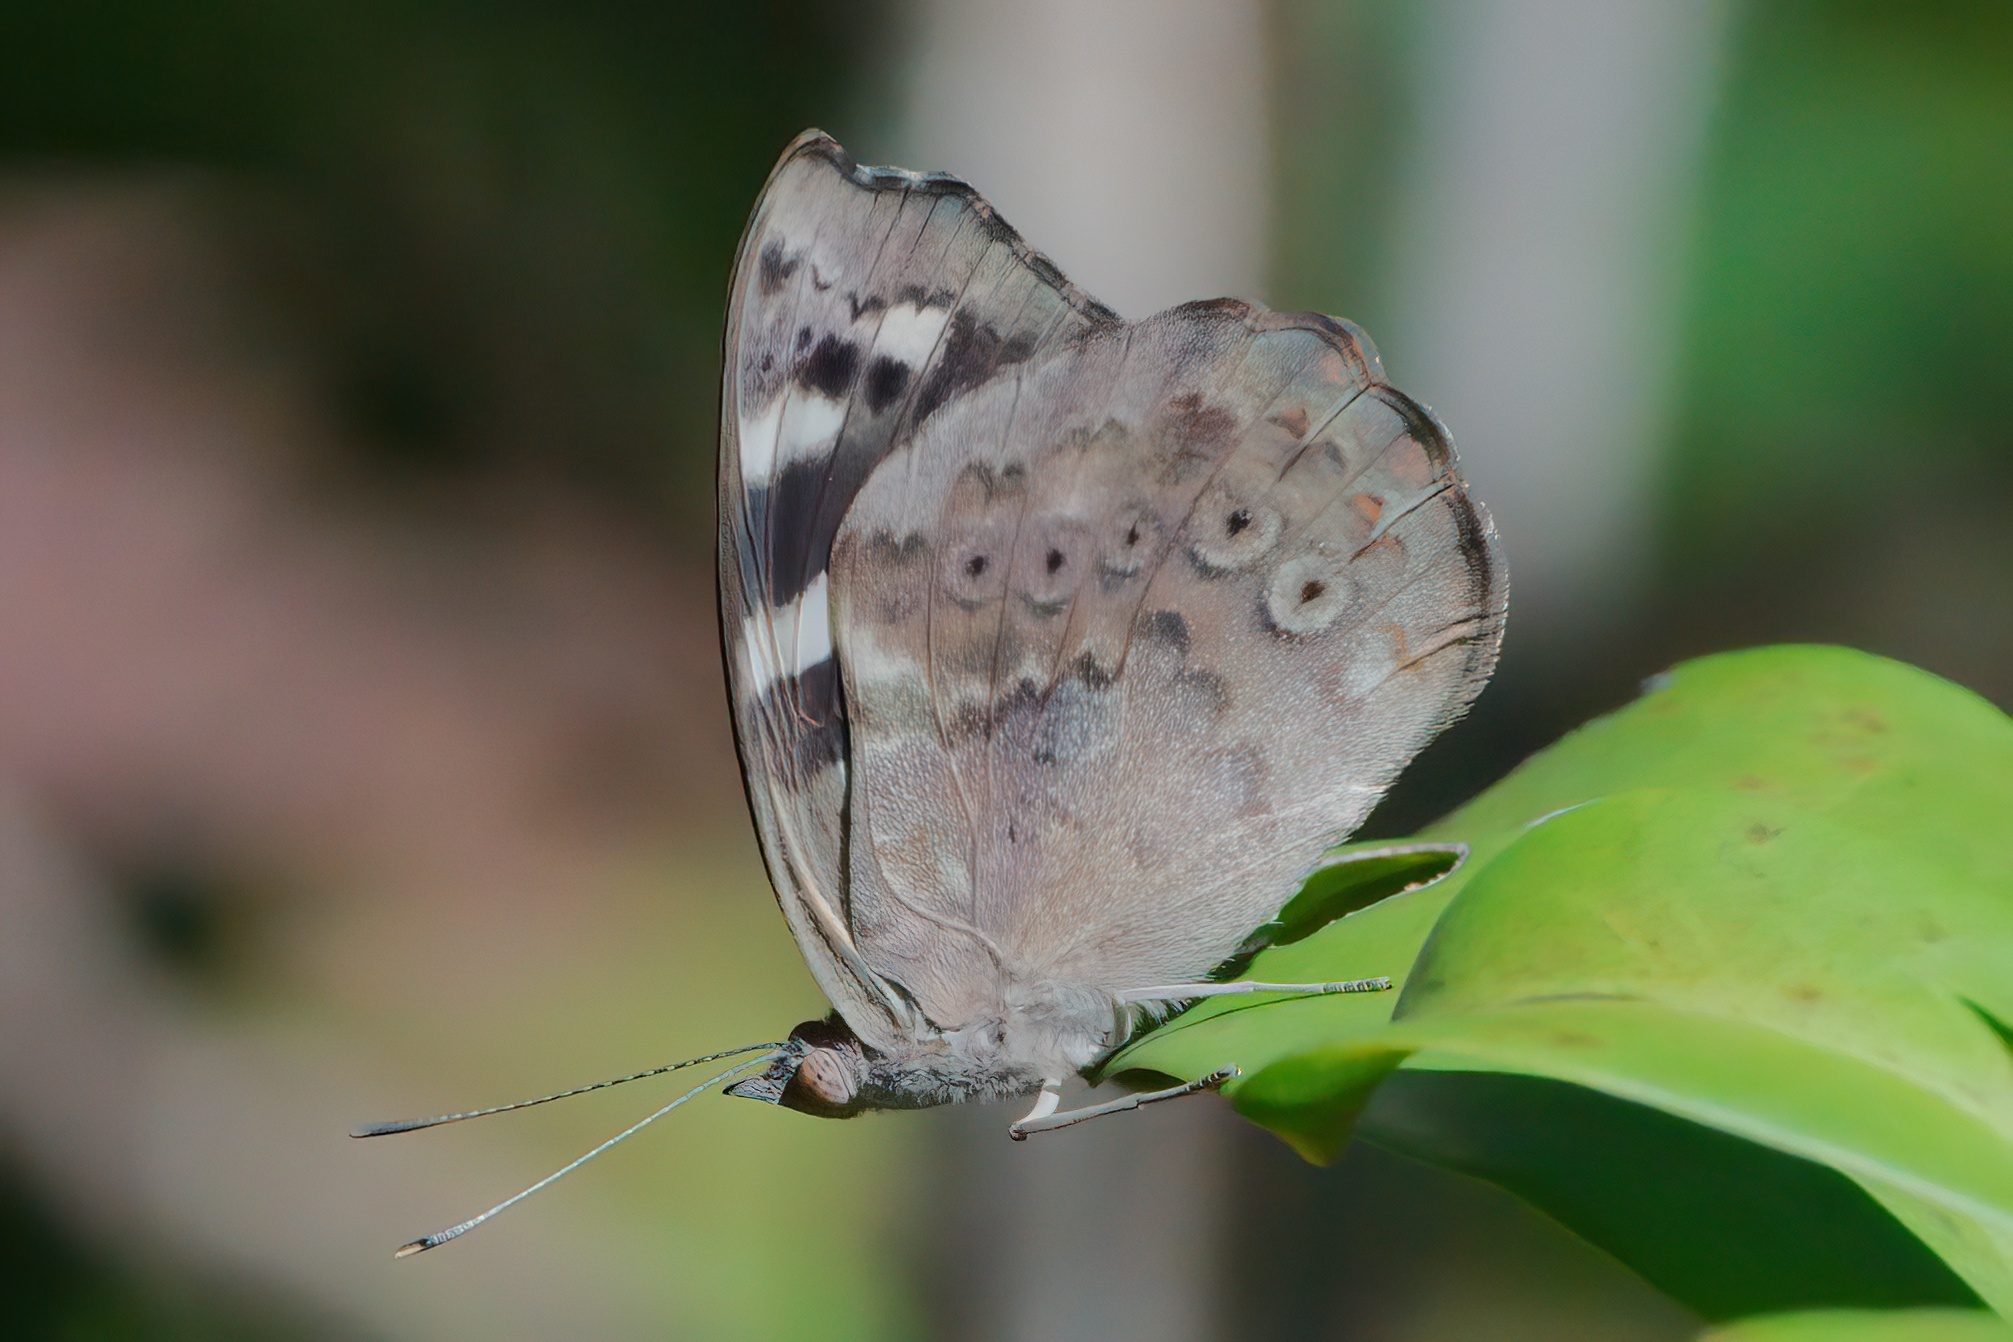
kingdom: Animalia
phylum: Arthropoda
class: Insecta
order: Lepidoptera
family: Nymphalidae
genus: Eunica
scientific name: Eunica tatila
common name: Florida purplewing
